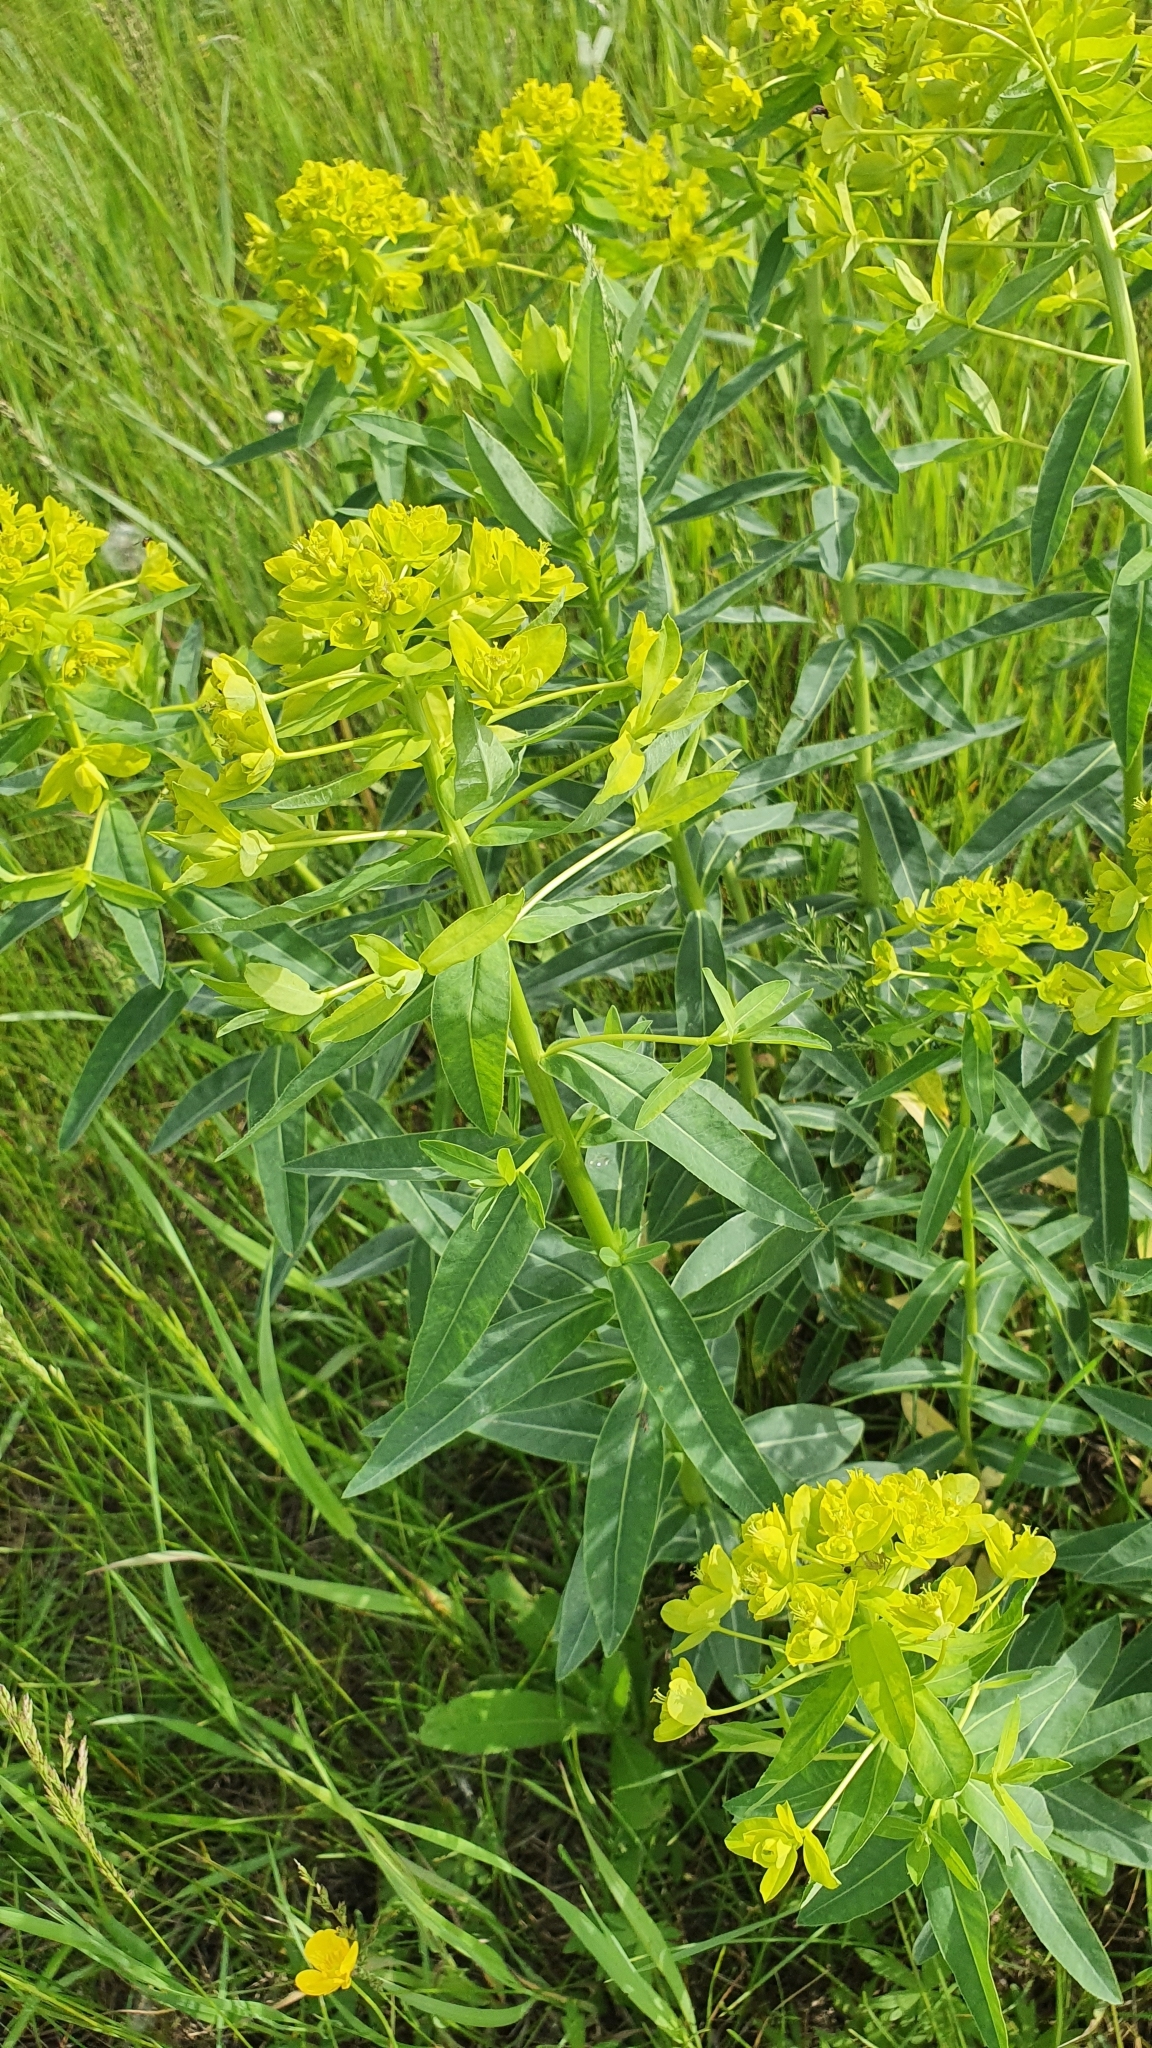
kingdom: Plantae
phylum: Tracheophyta
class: Magnoliopsida
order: Malpighiales
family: Euphorbiaceae
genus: Euphorbia
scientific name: Euphorbia semivillosa
